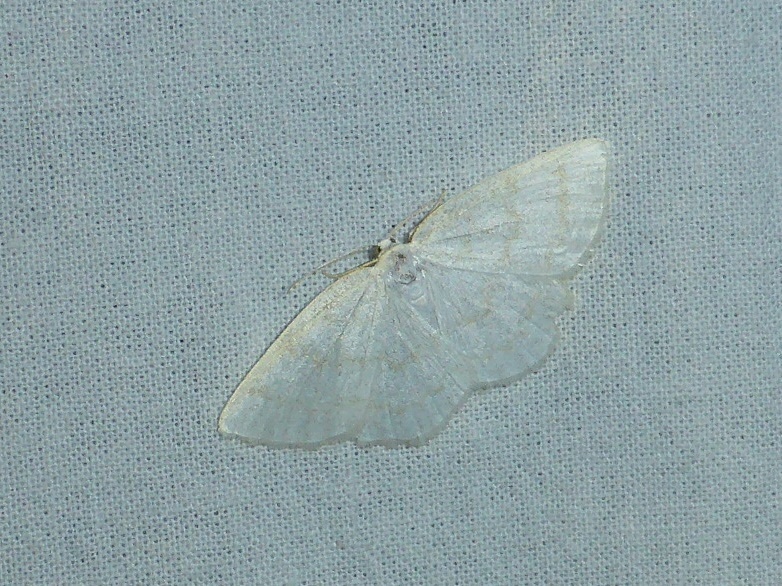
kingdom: Animalia
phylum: Arthropoda
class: Insecta
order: Lepidoptera
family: Geometridae
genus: Cabera
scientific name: Cabera exanthemata
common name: Common wave
